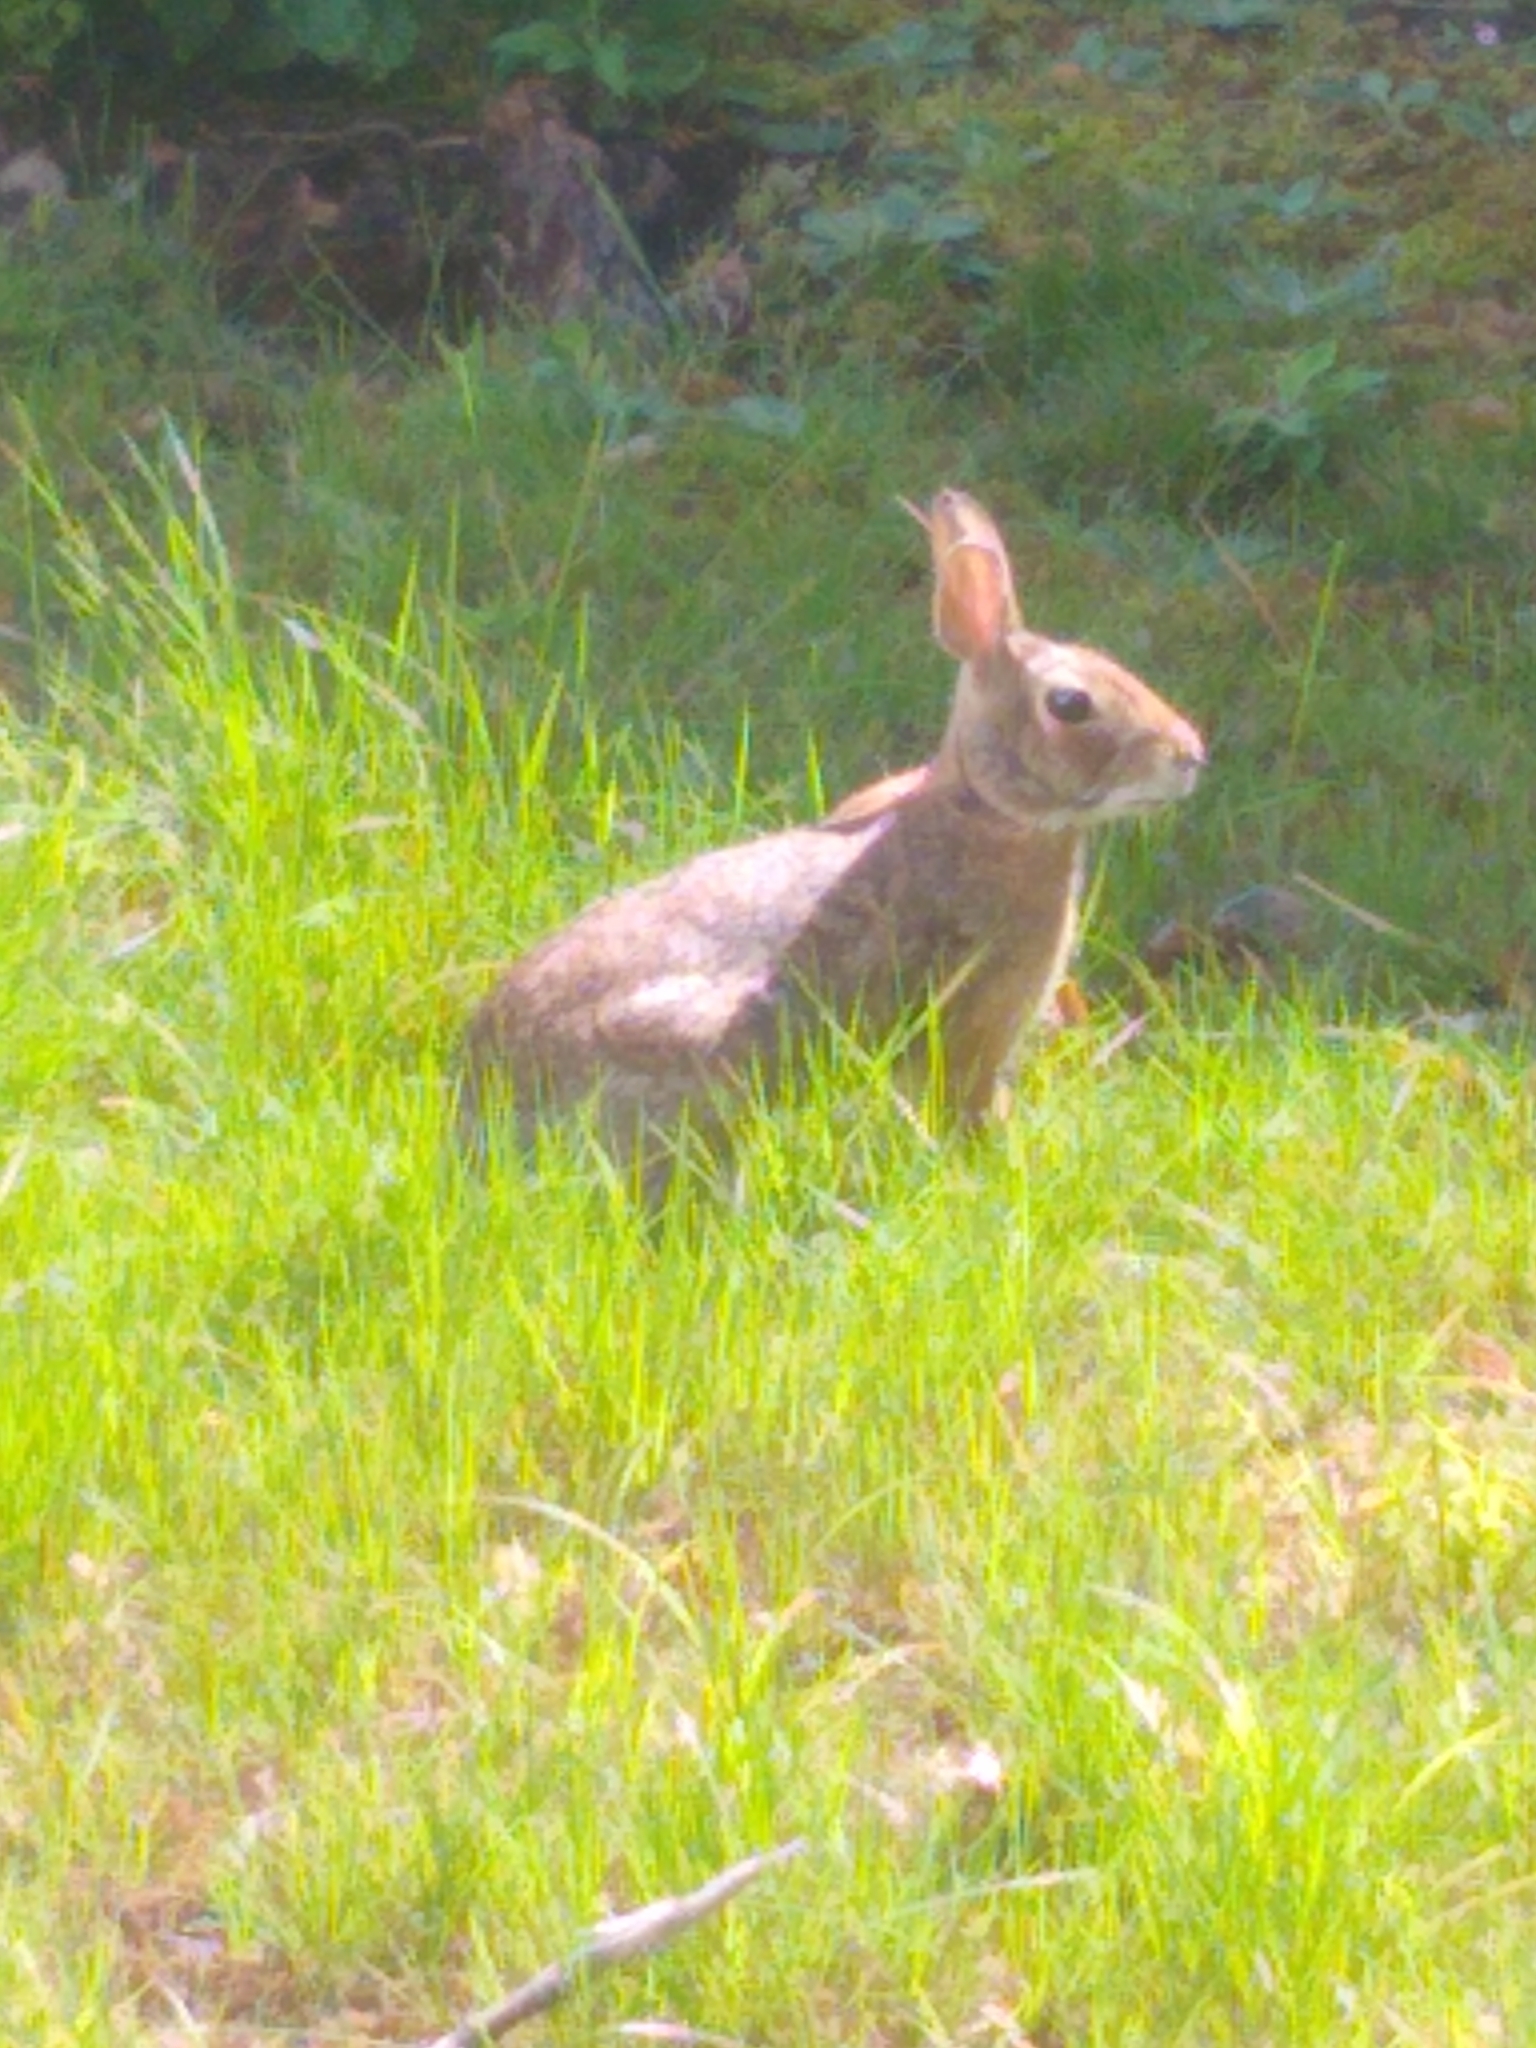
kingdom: Animalia
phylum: Chordata
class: Mammalia
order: Lagomorpha
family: Leporidae
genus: Sylvilagus
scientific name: Sylvilagus floridanus
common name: Eastern cottontail
